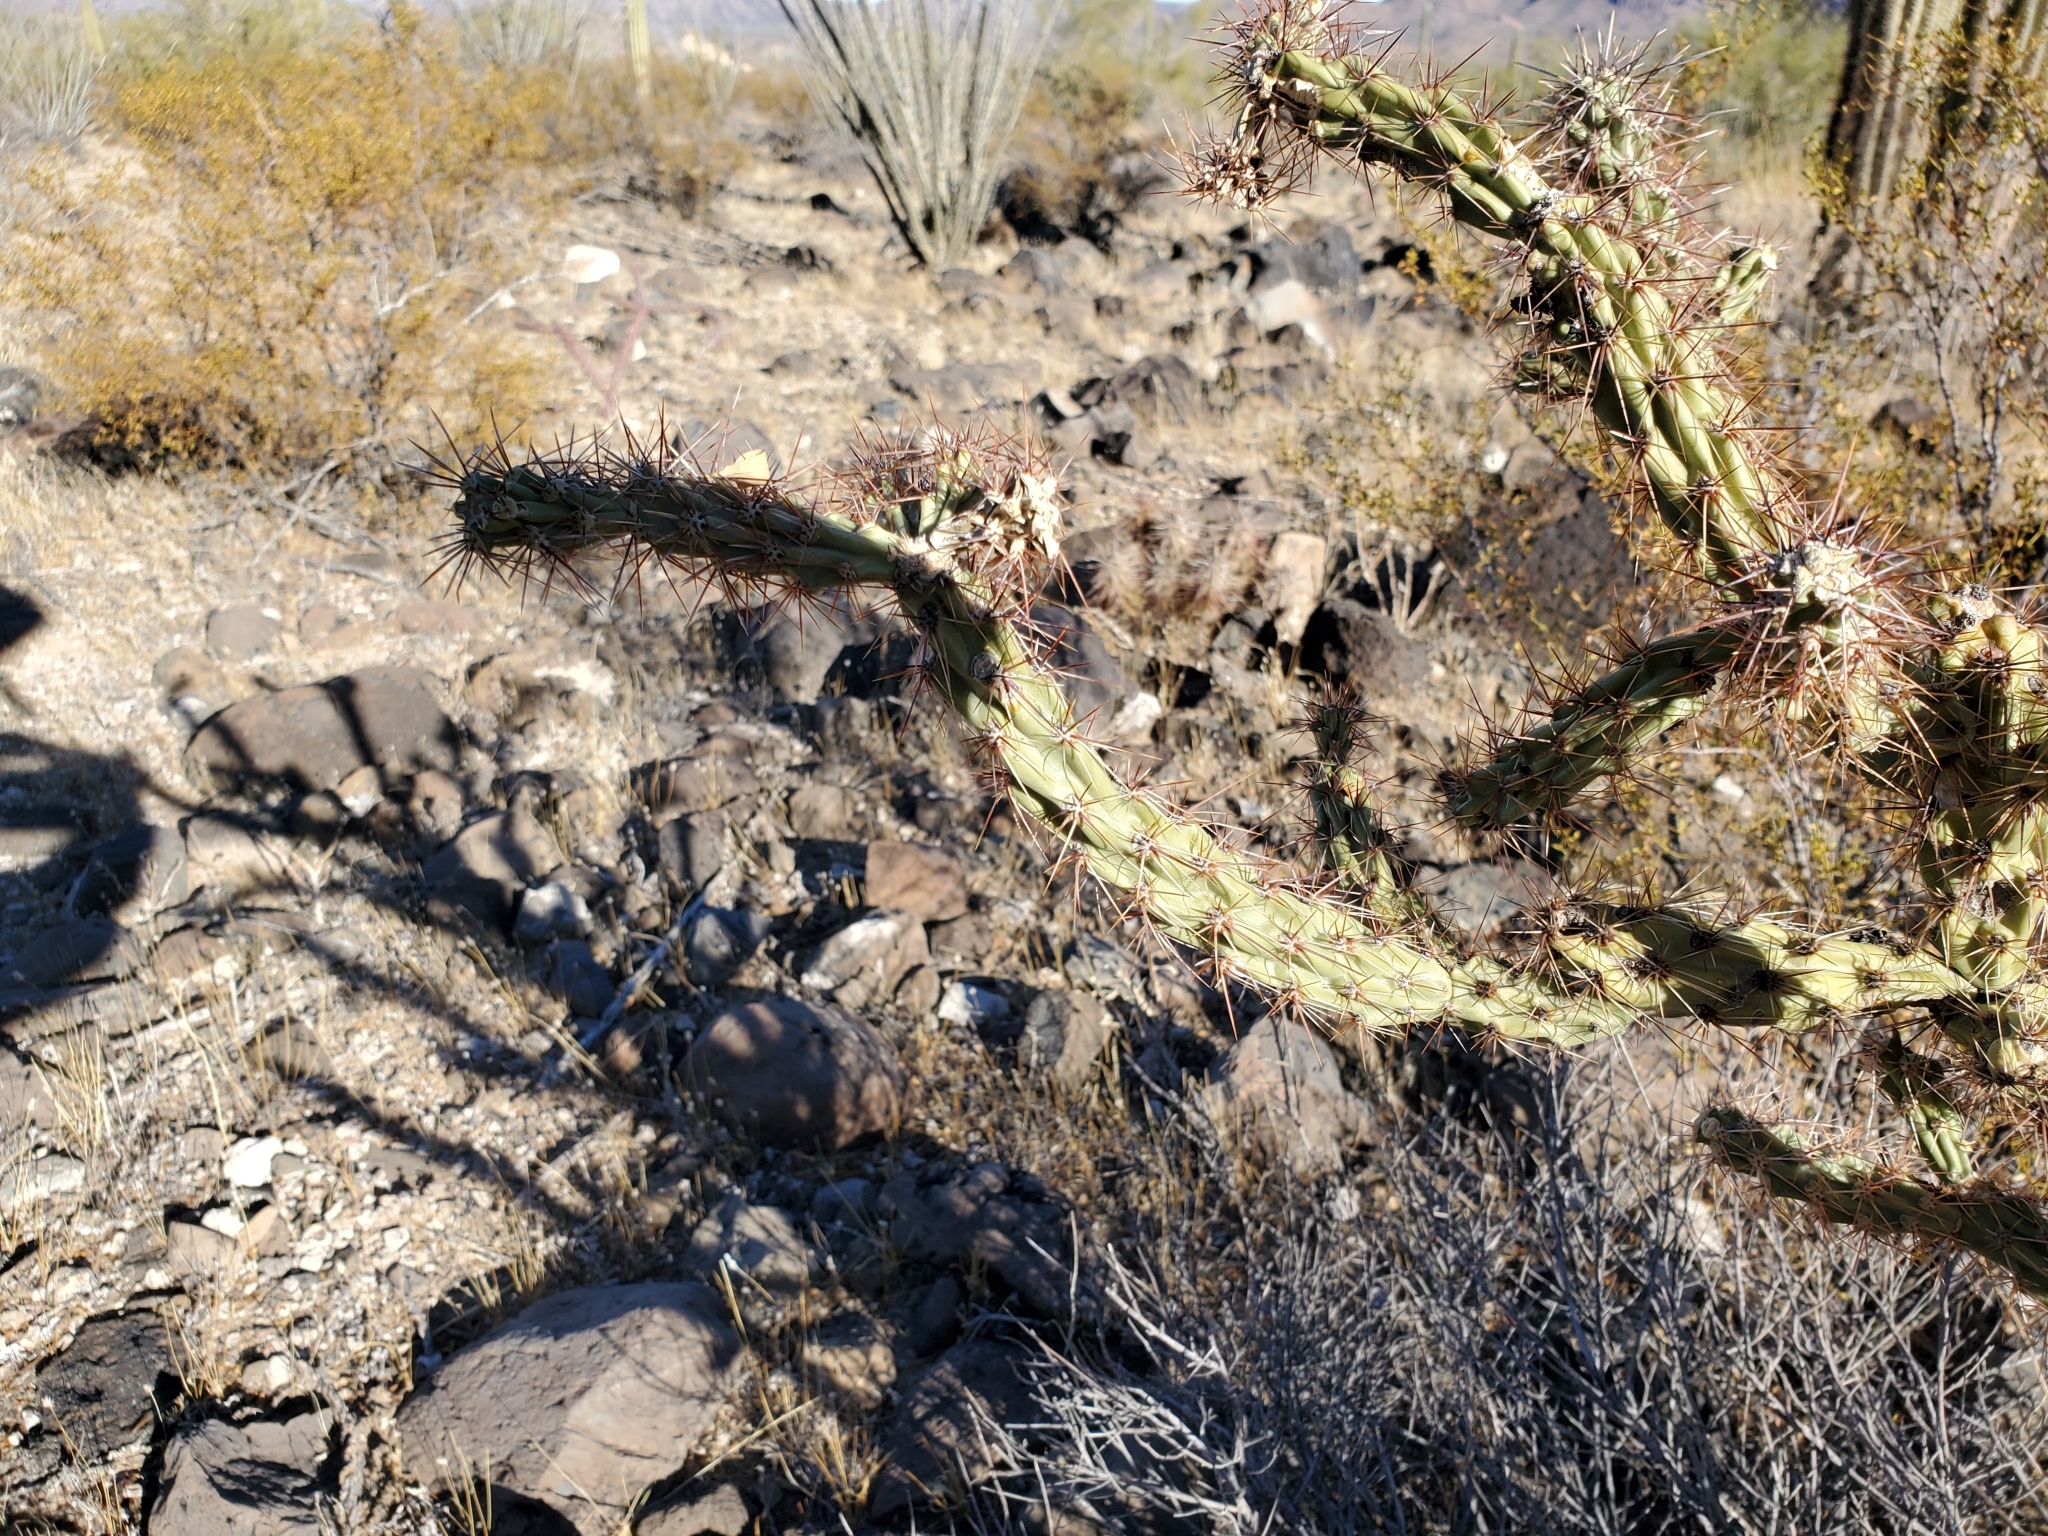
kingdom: Plantae
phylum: Tracheophyta
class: Magnoliopsida
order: Caryophyllales
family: Cactaceae
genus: Cylindropuntia
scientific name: Cylindropuntia acanthocarpa
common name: Buckhorn cholla
